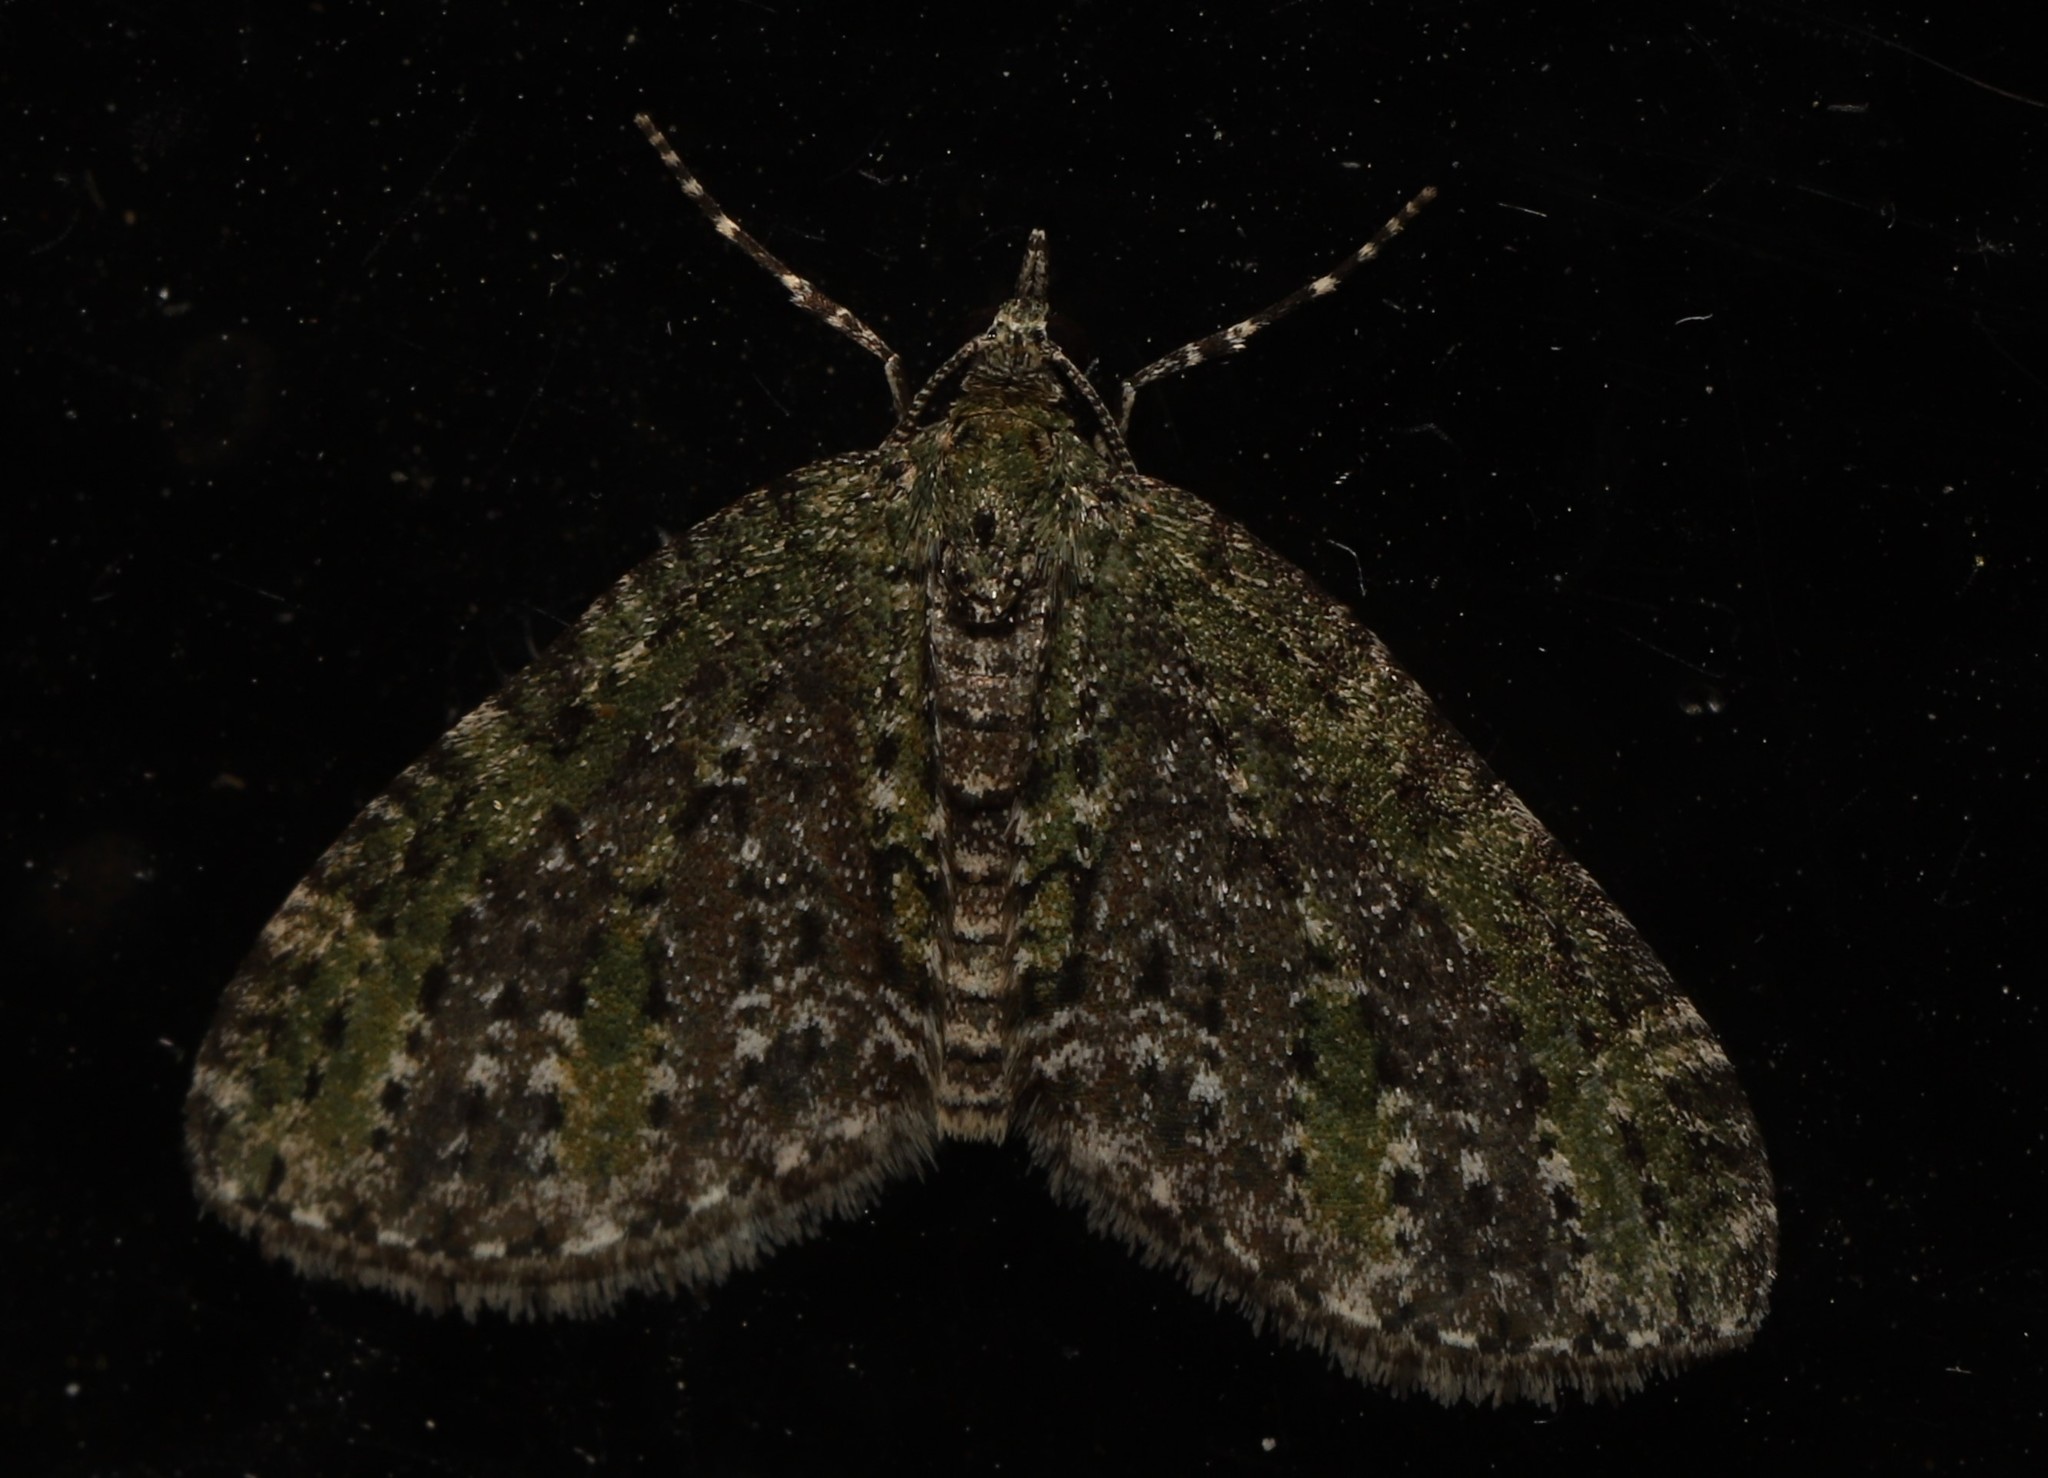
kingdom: Animalia
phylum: Arthropoda
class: Insecta
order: Lepidoptera
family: Geometridae
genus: Acasis
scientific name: Acasis viridata
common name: Olive-and-black carpet moth
